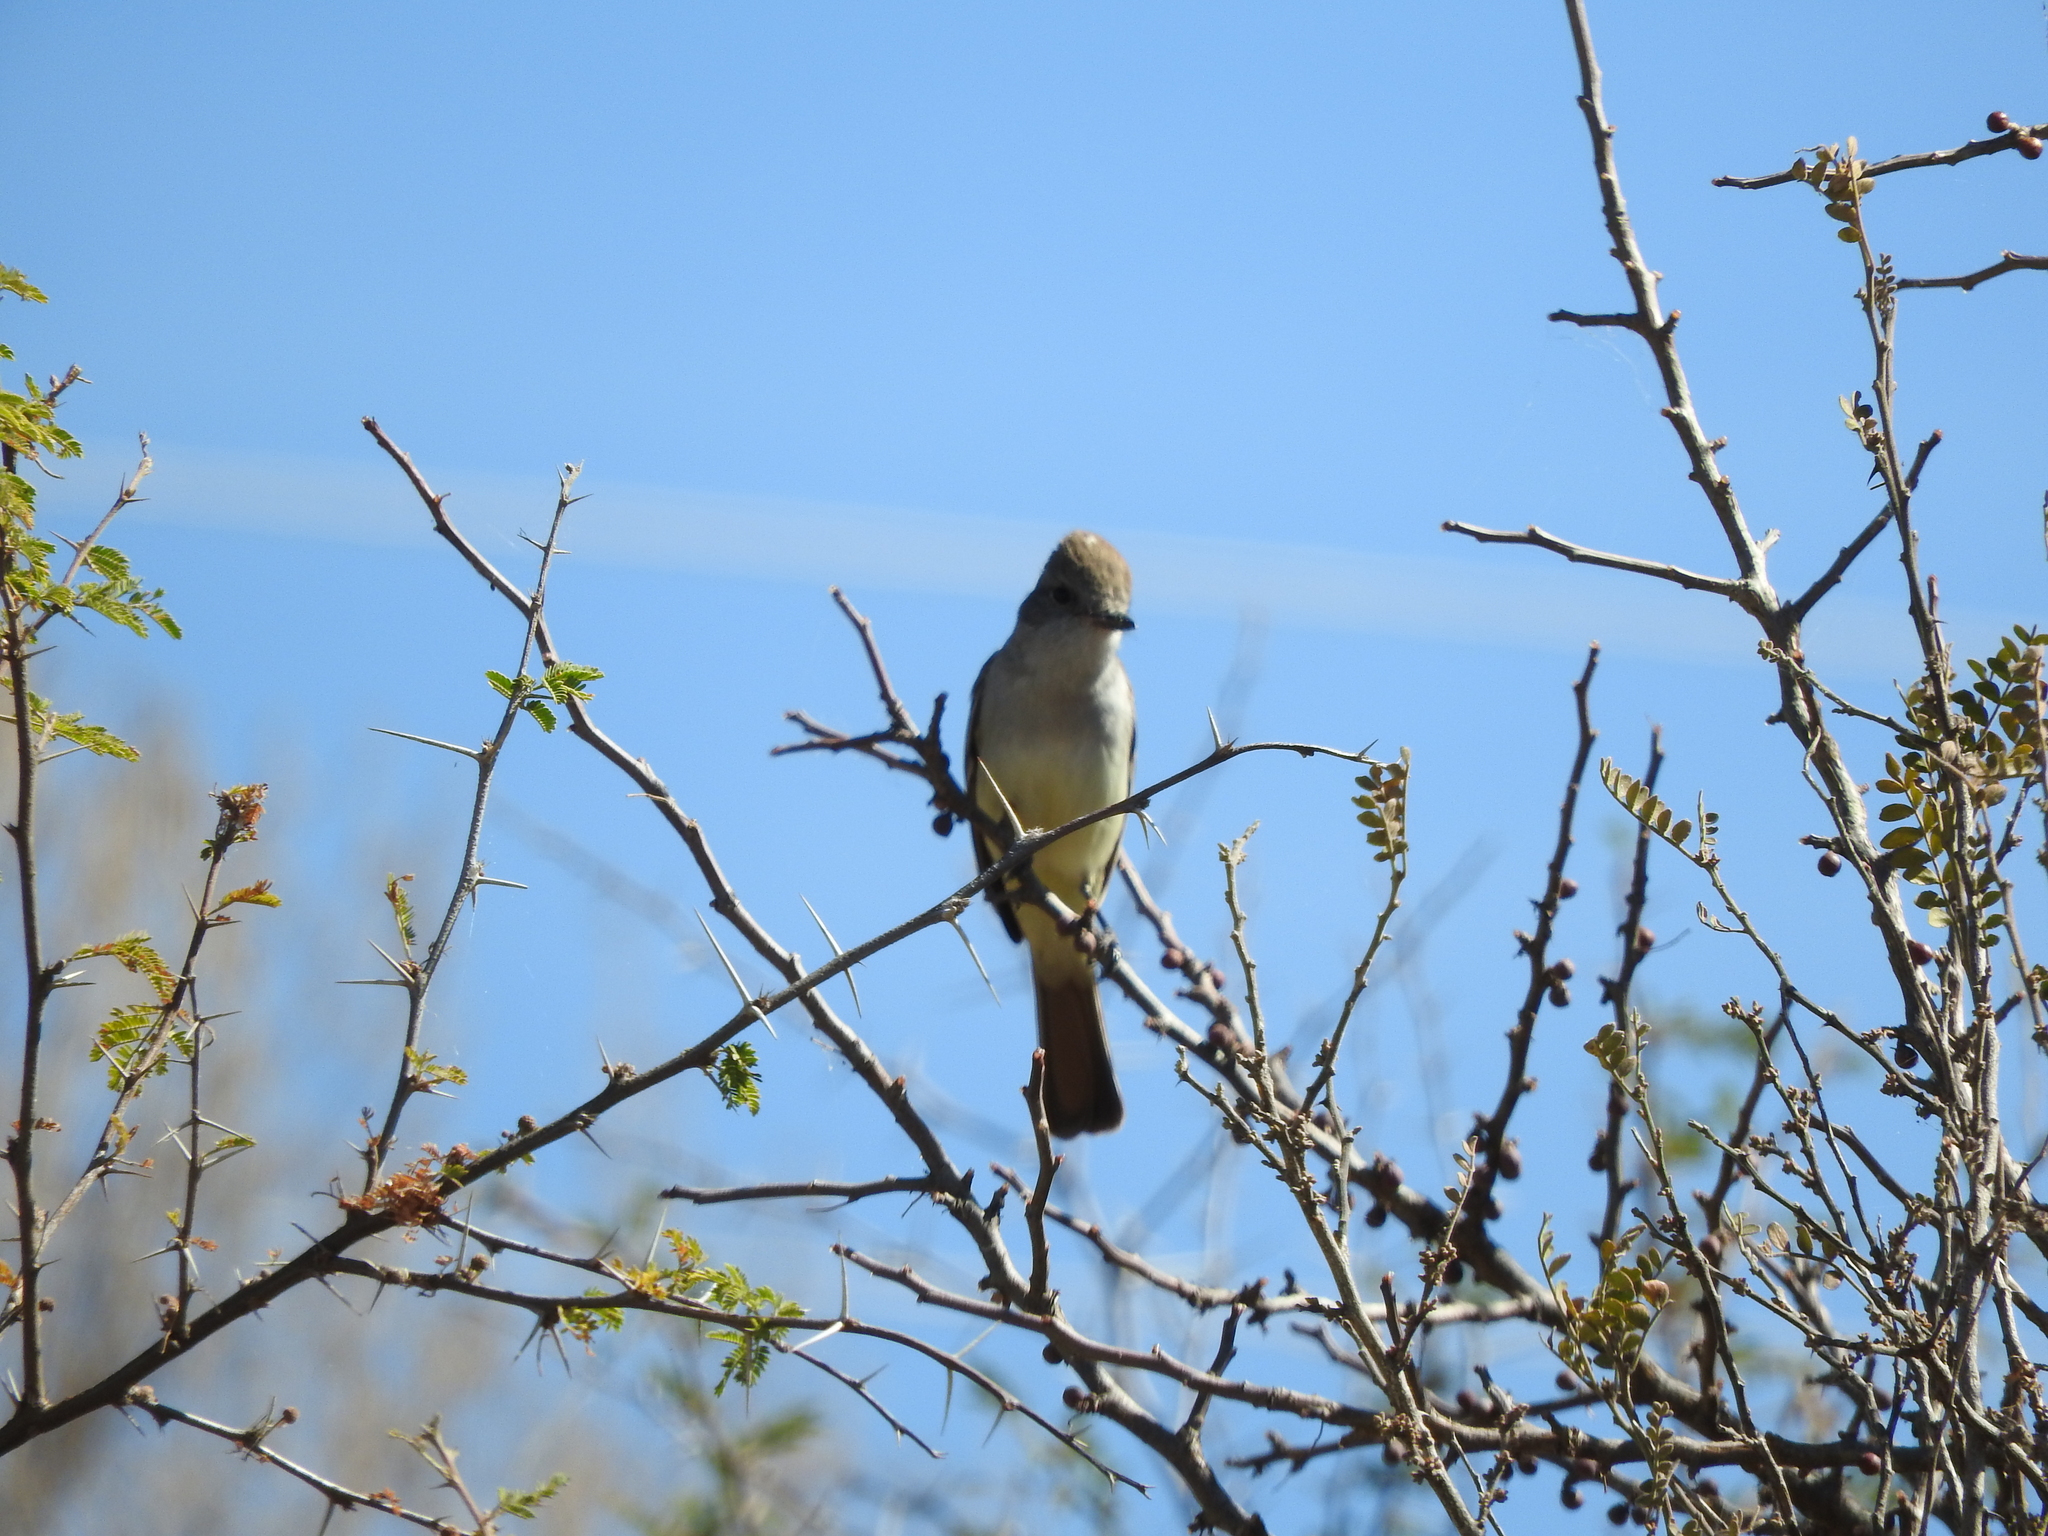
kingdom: Animalia
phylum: Chordata
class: Aves
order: Passeriformes
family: Tyrannidae
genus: Myiarchus
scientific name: Myiarchus cinerascens
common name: Ash-throated flycatcher
